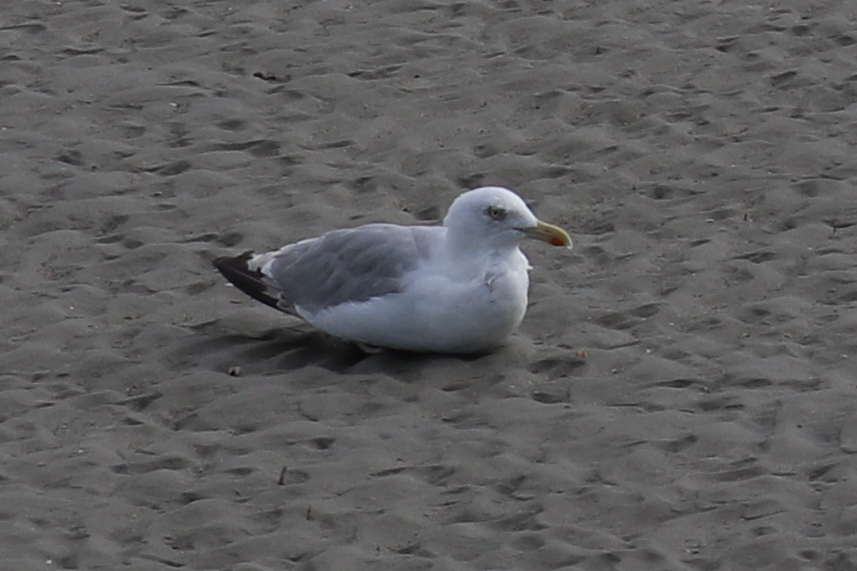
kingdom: Animalia
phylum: Chordata
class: Aves
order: Charadriiformes
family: Laridae
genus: Larus
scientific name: Larus argentatus
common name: Herring gull
